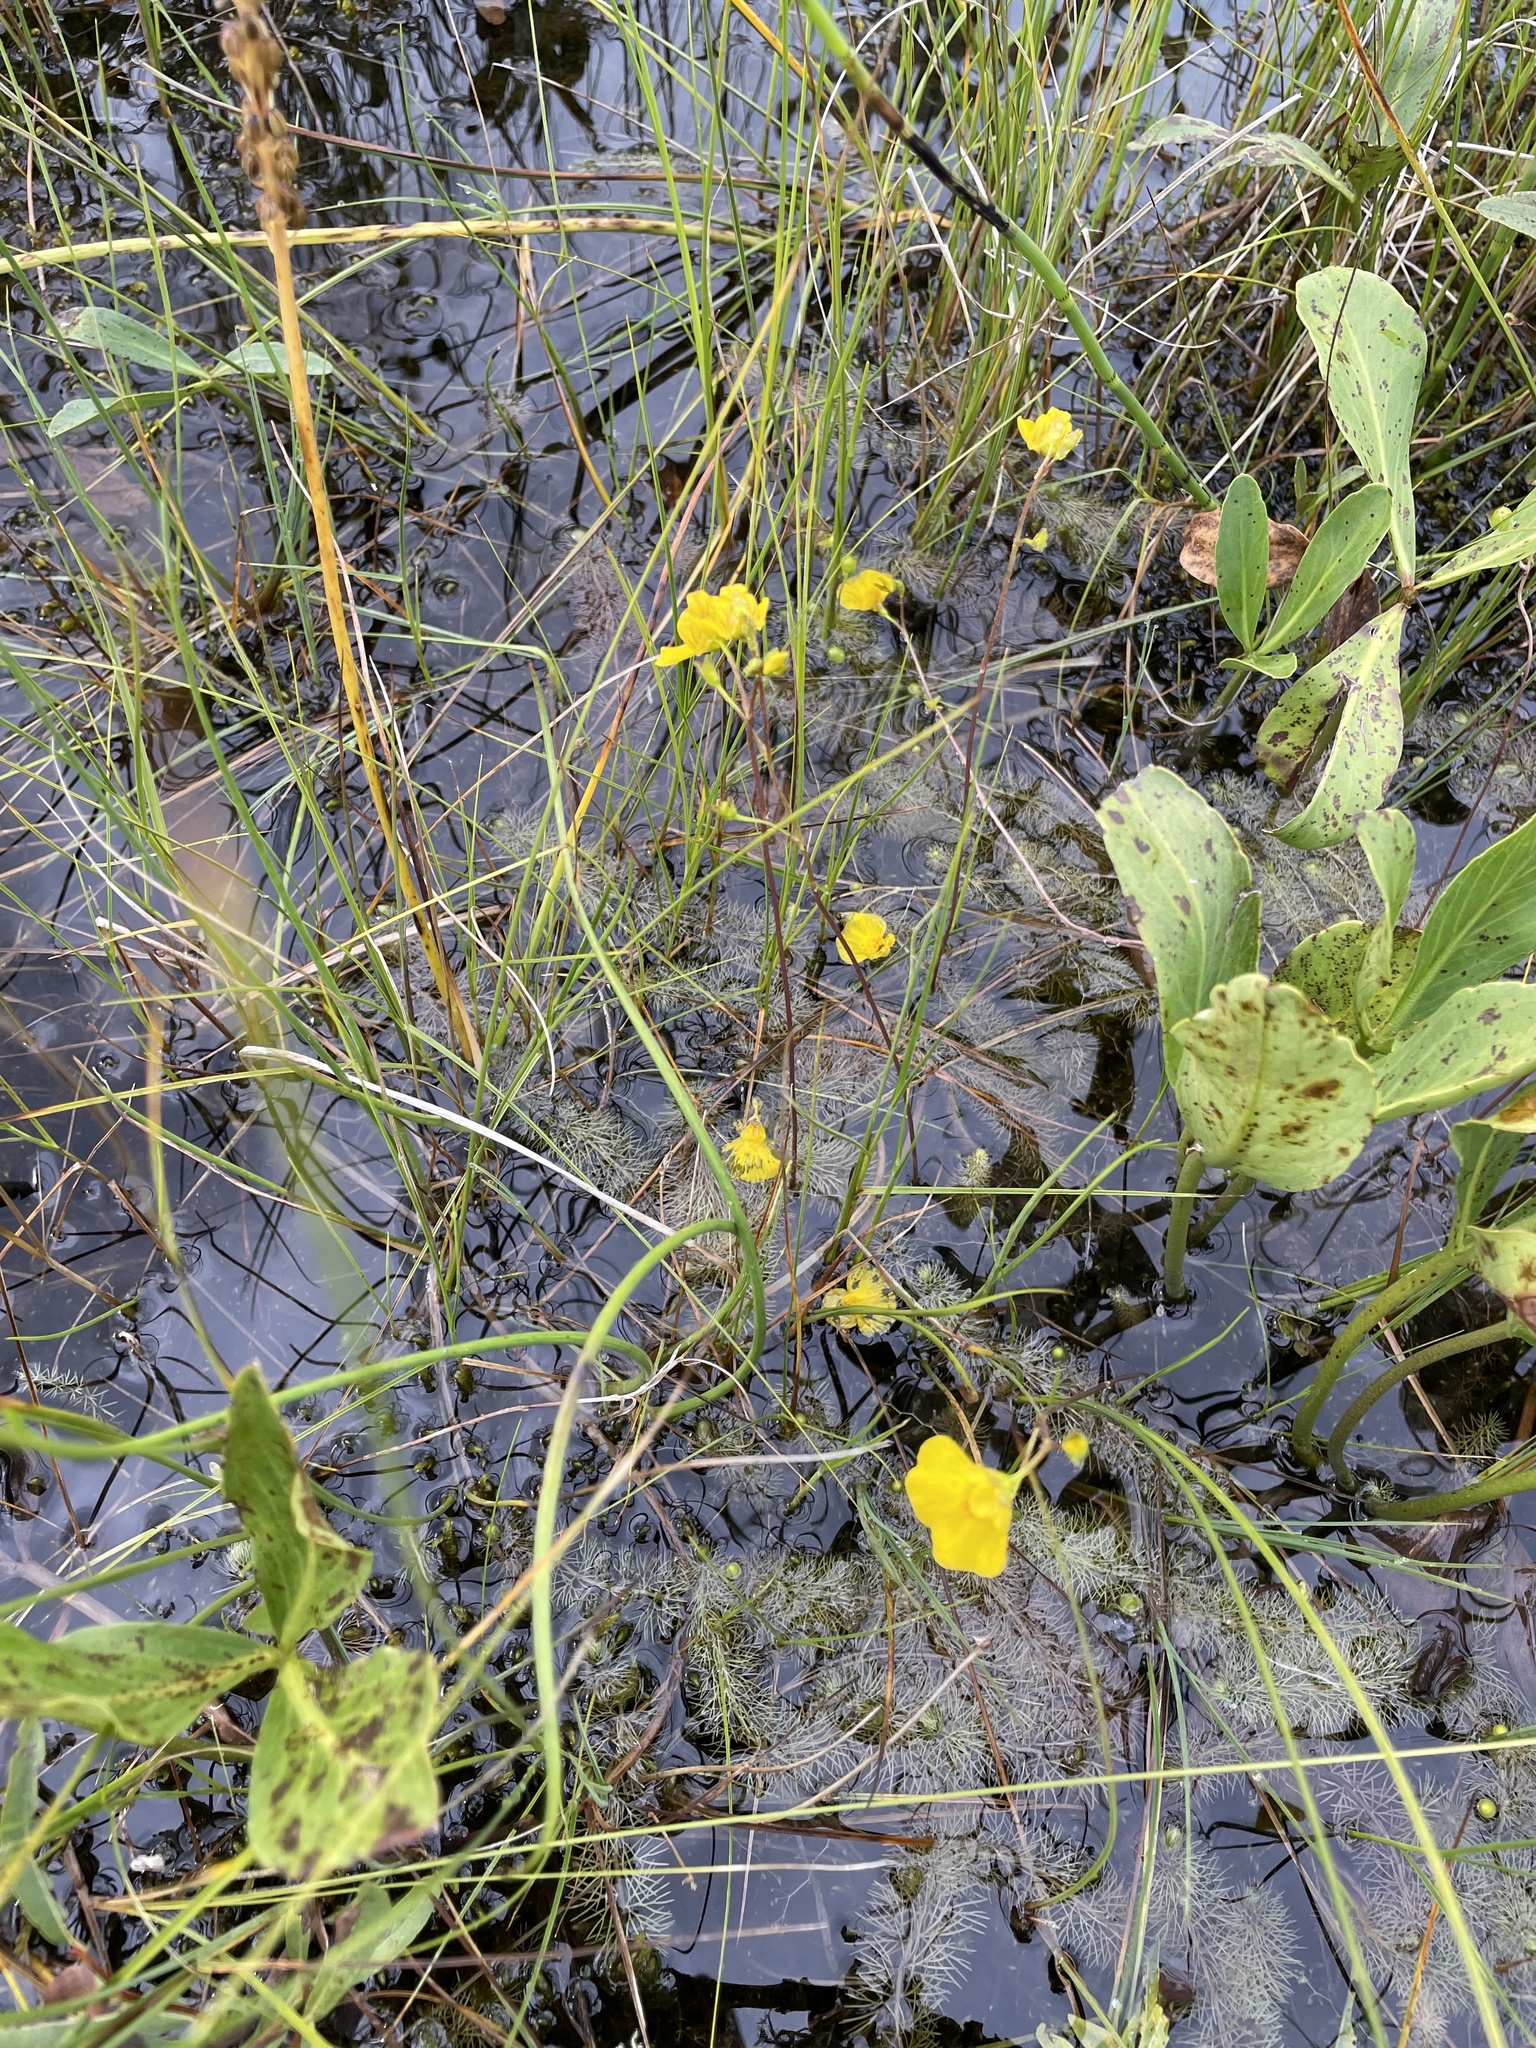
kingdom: Plantae
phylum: Tracheophyta
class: Magnoliopsida
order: Lamiales
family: Lentibulariaceae
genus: Utricularia
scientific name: Utricularia intermedia
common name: Intermediate bladderwort
